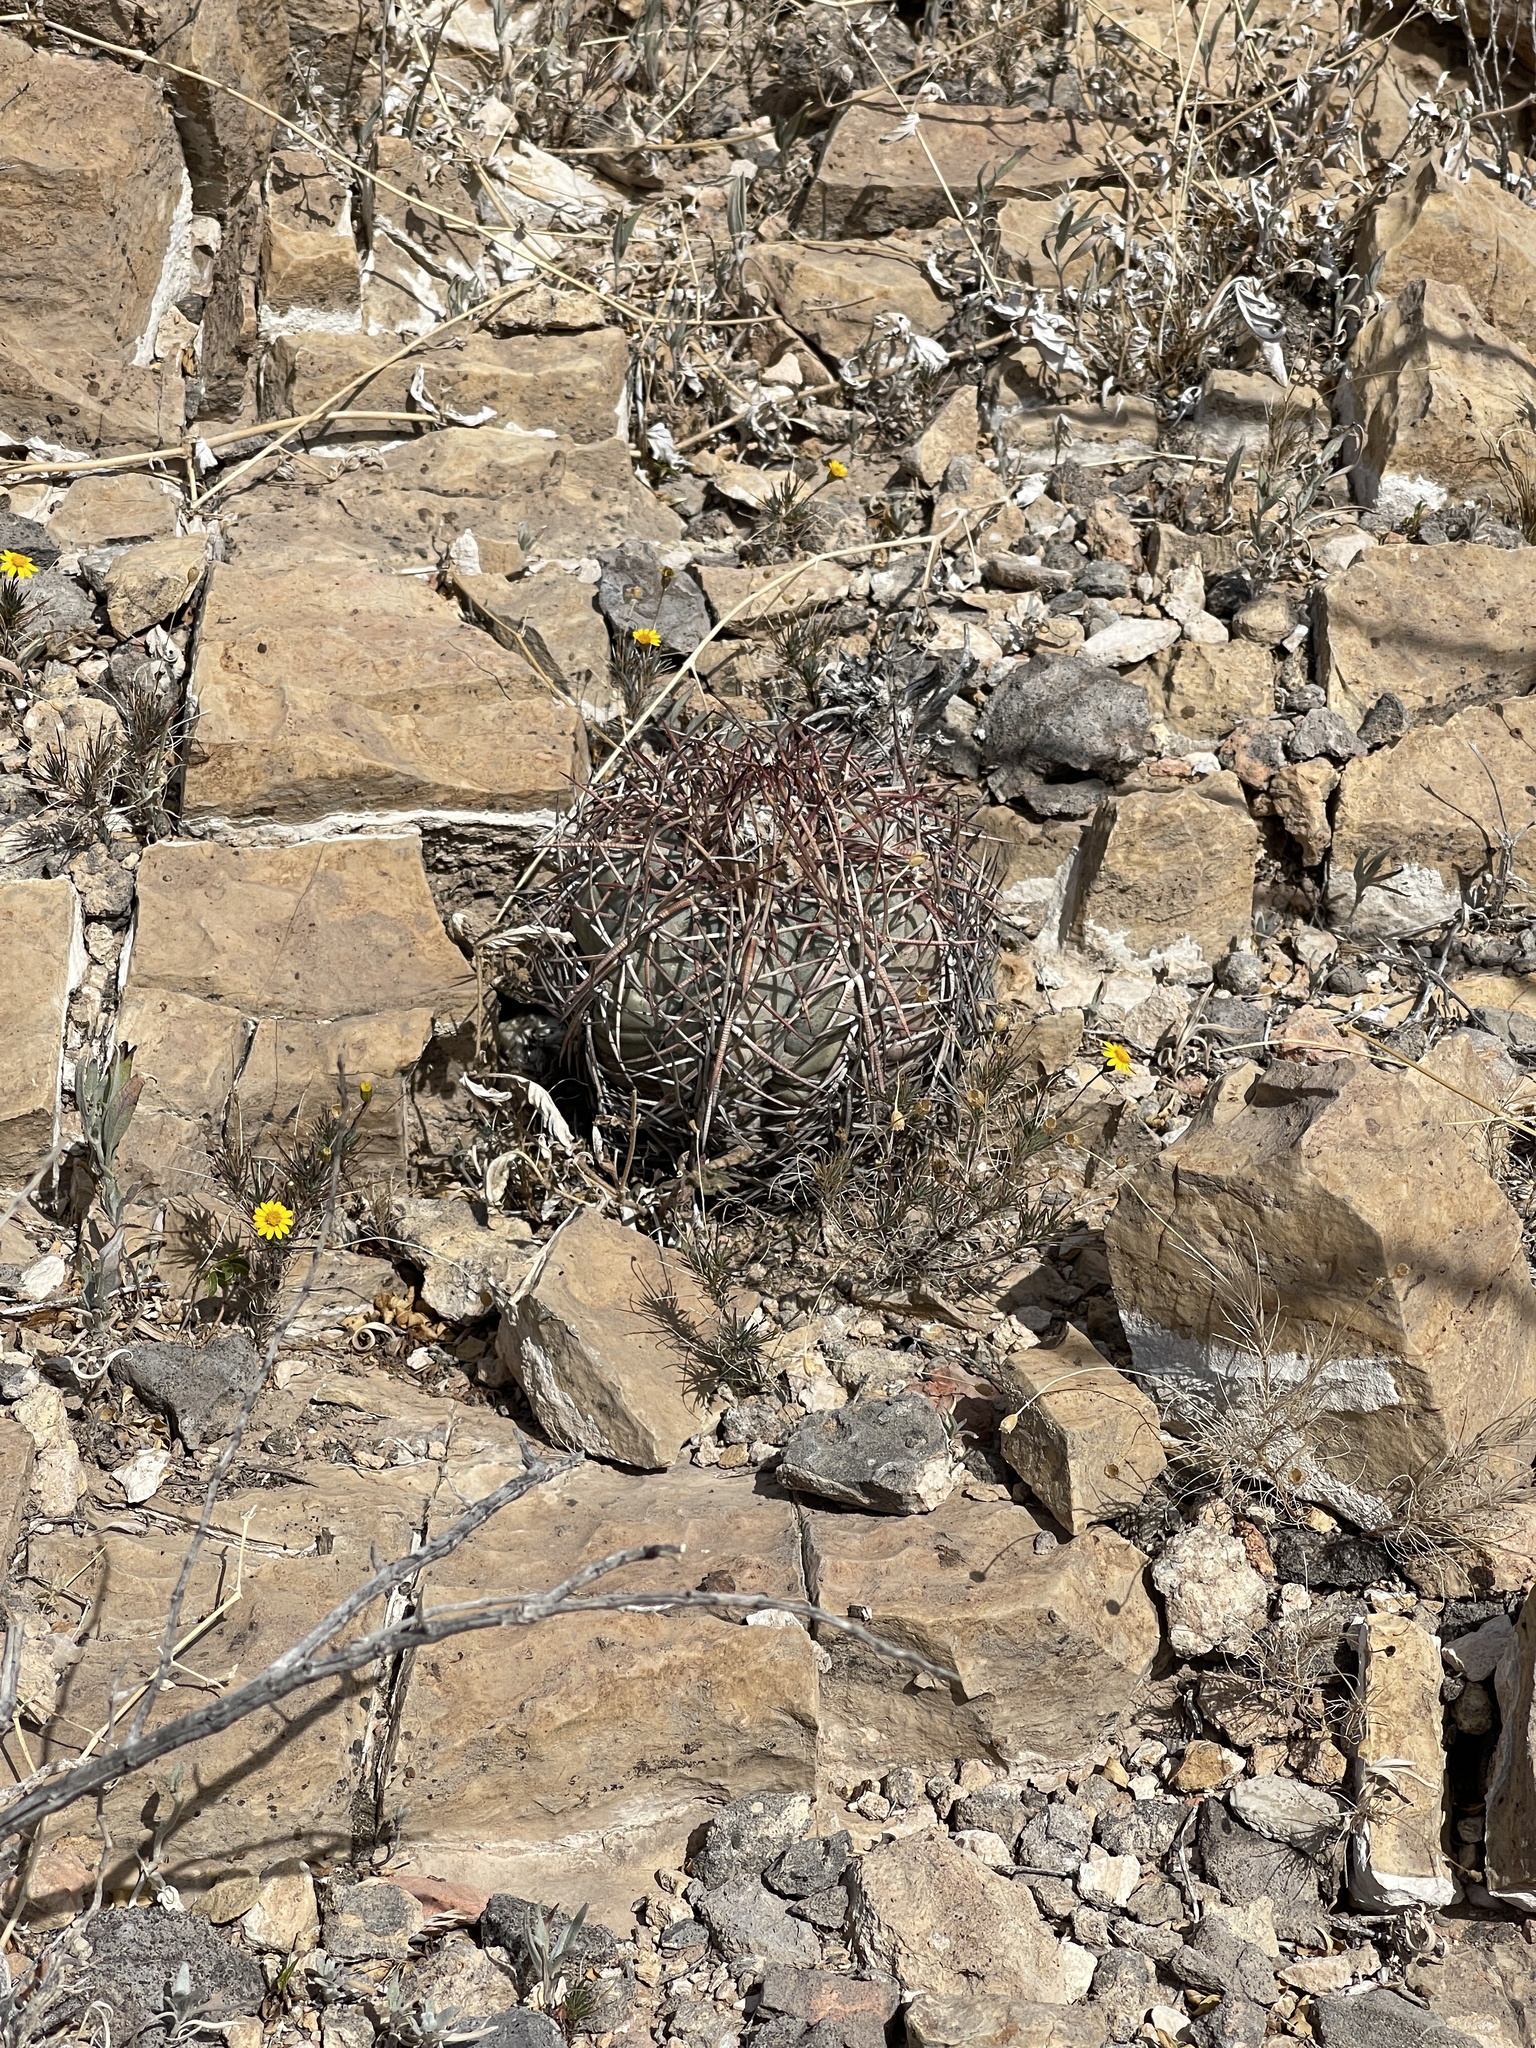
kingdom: Plantae
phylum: Tracheophyta
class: Magnoliopsida
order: Caryophyllales
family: Cactaceae
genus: Echinocactus
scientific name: Echinocactus horizonthalonius
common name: Devilshead
